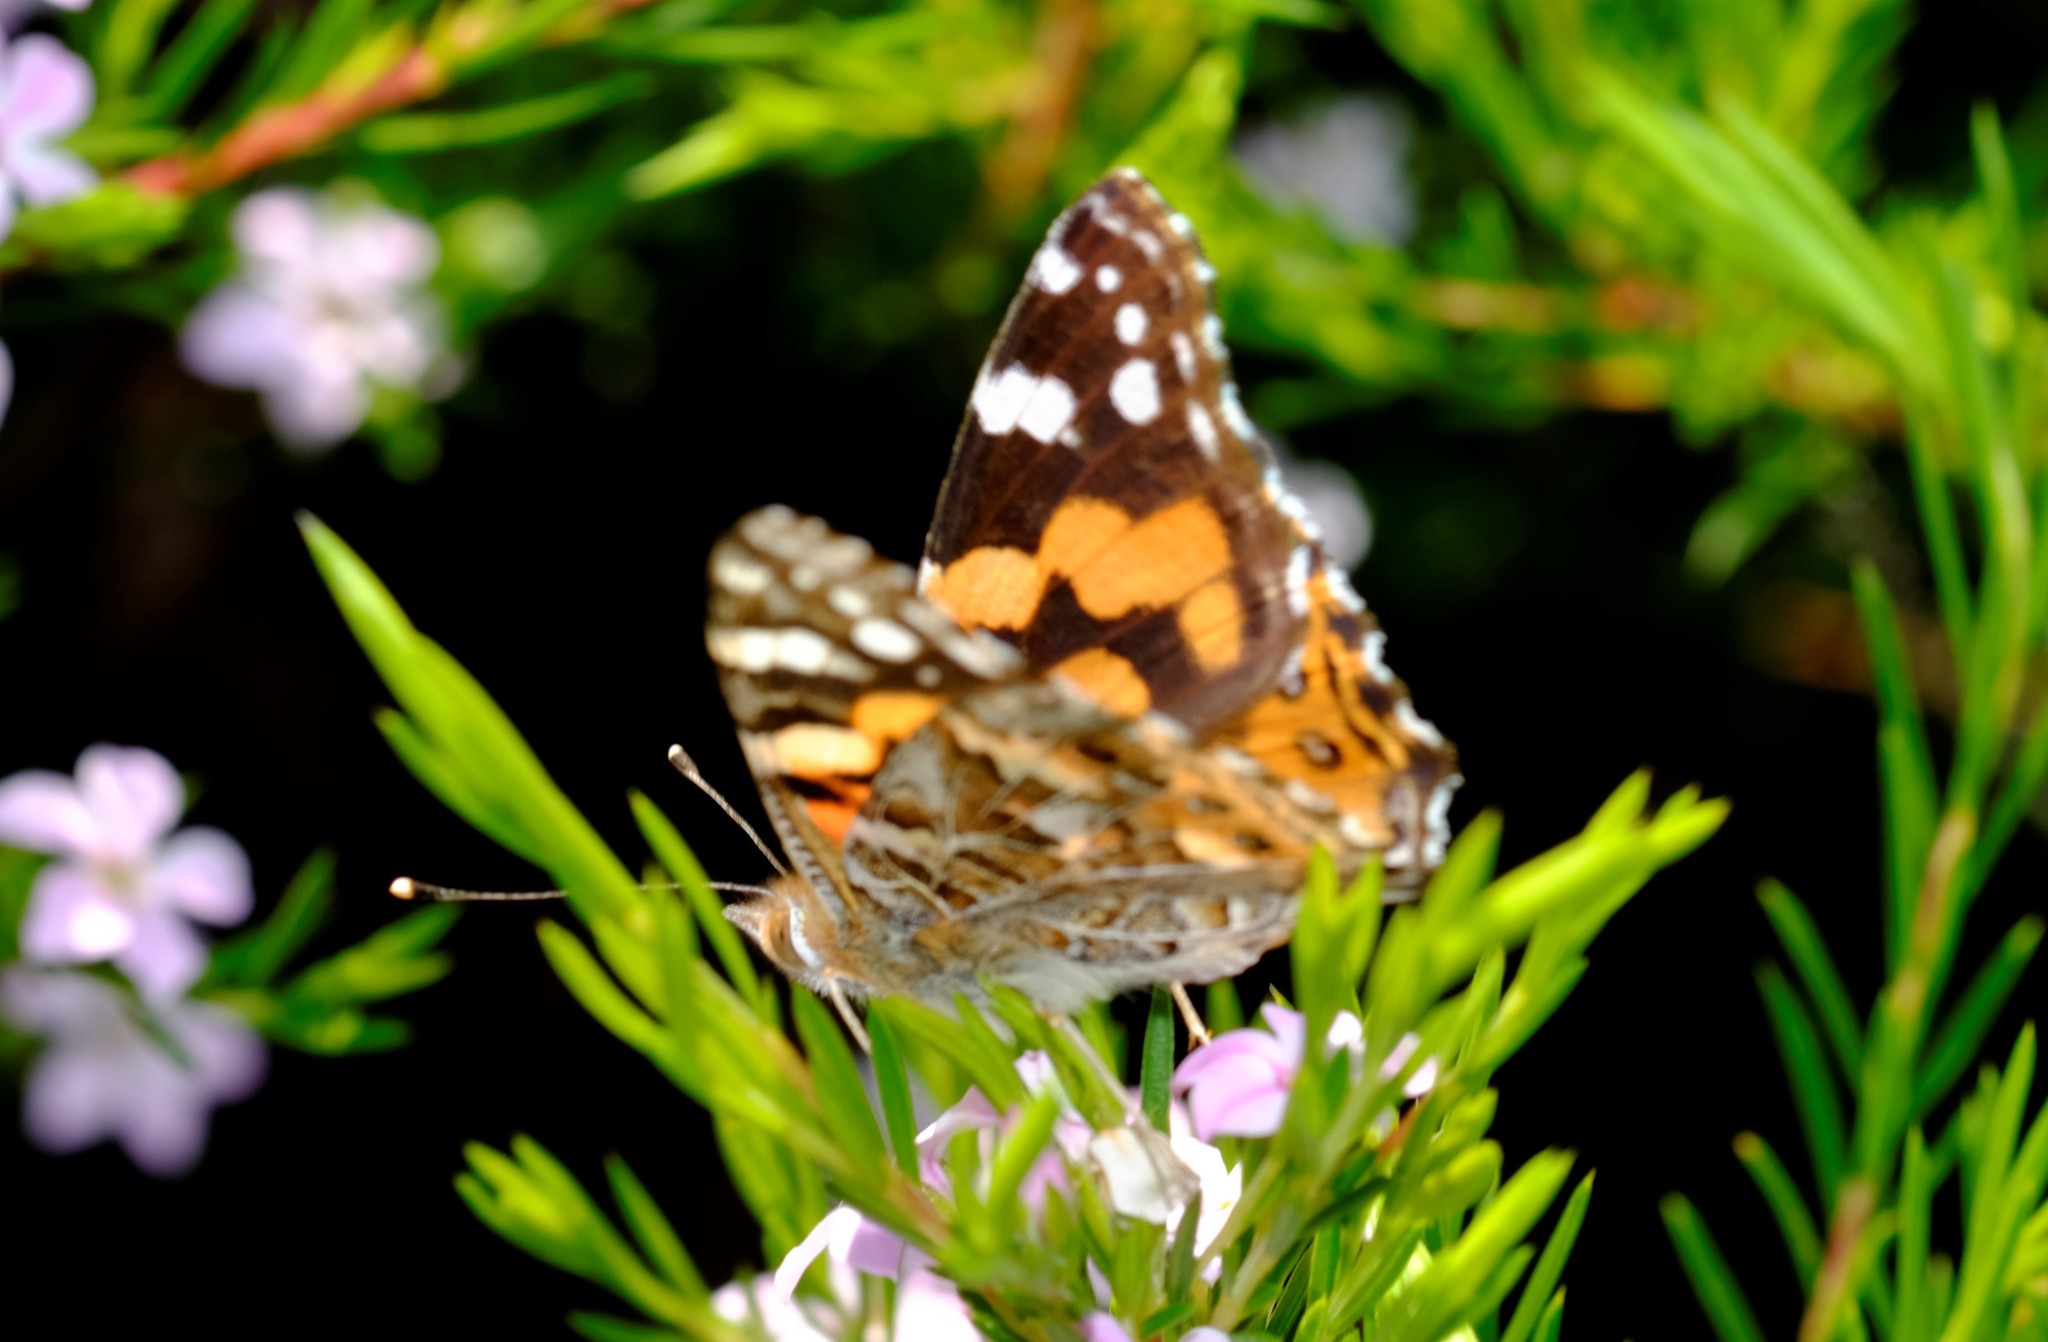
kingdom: Animalia
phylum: Arthropoda
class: Insecta
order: Lepidoptera
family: Nymphalidae
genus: Vanessa
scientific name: Vanessa kershawi
